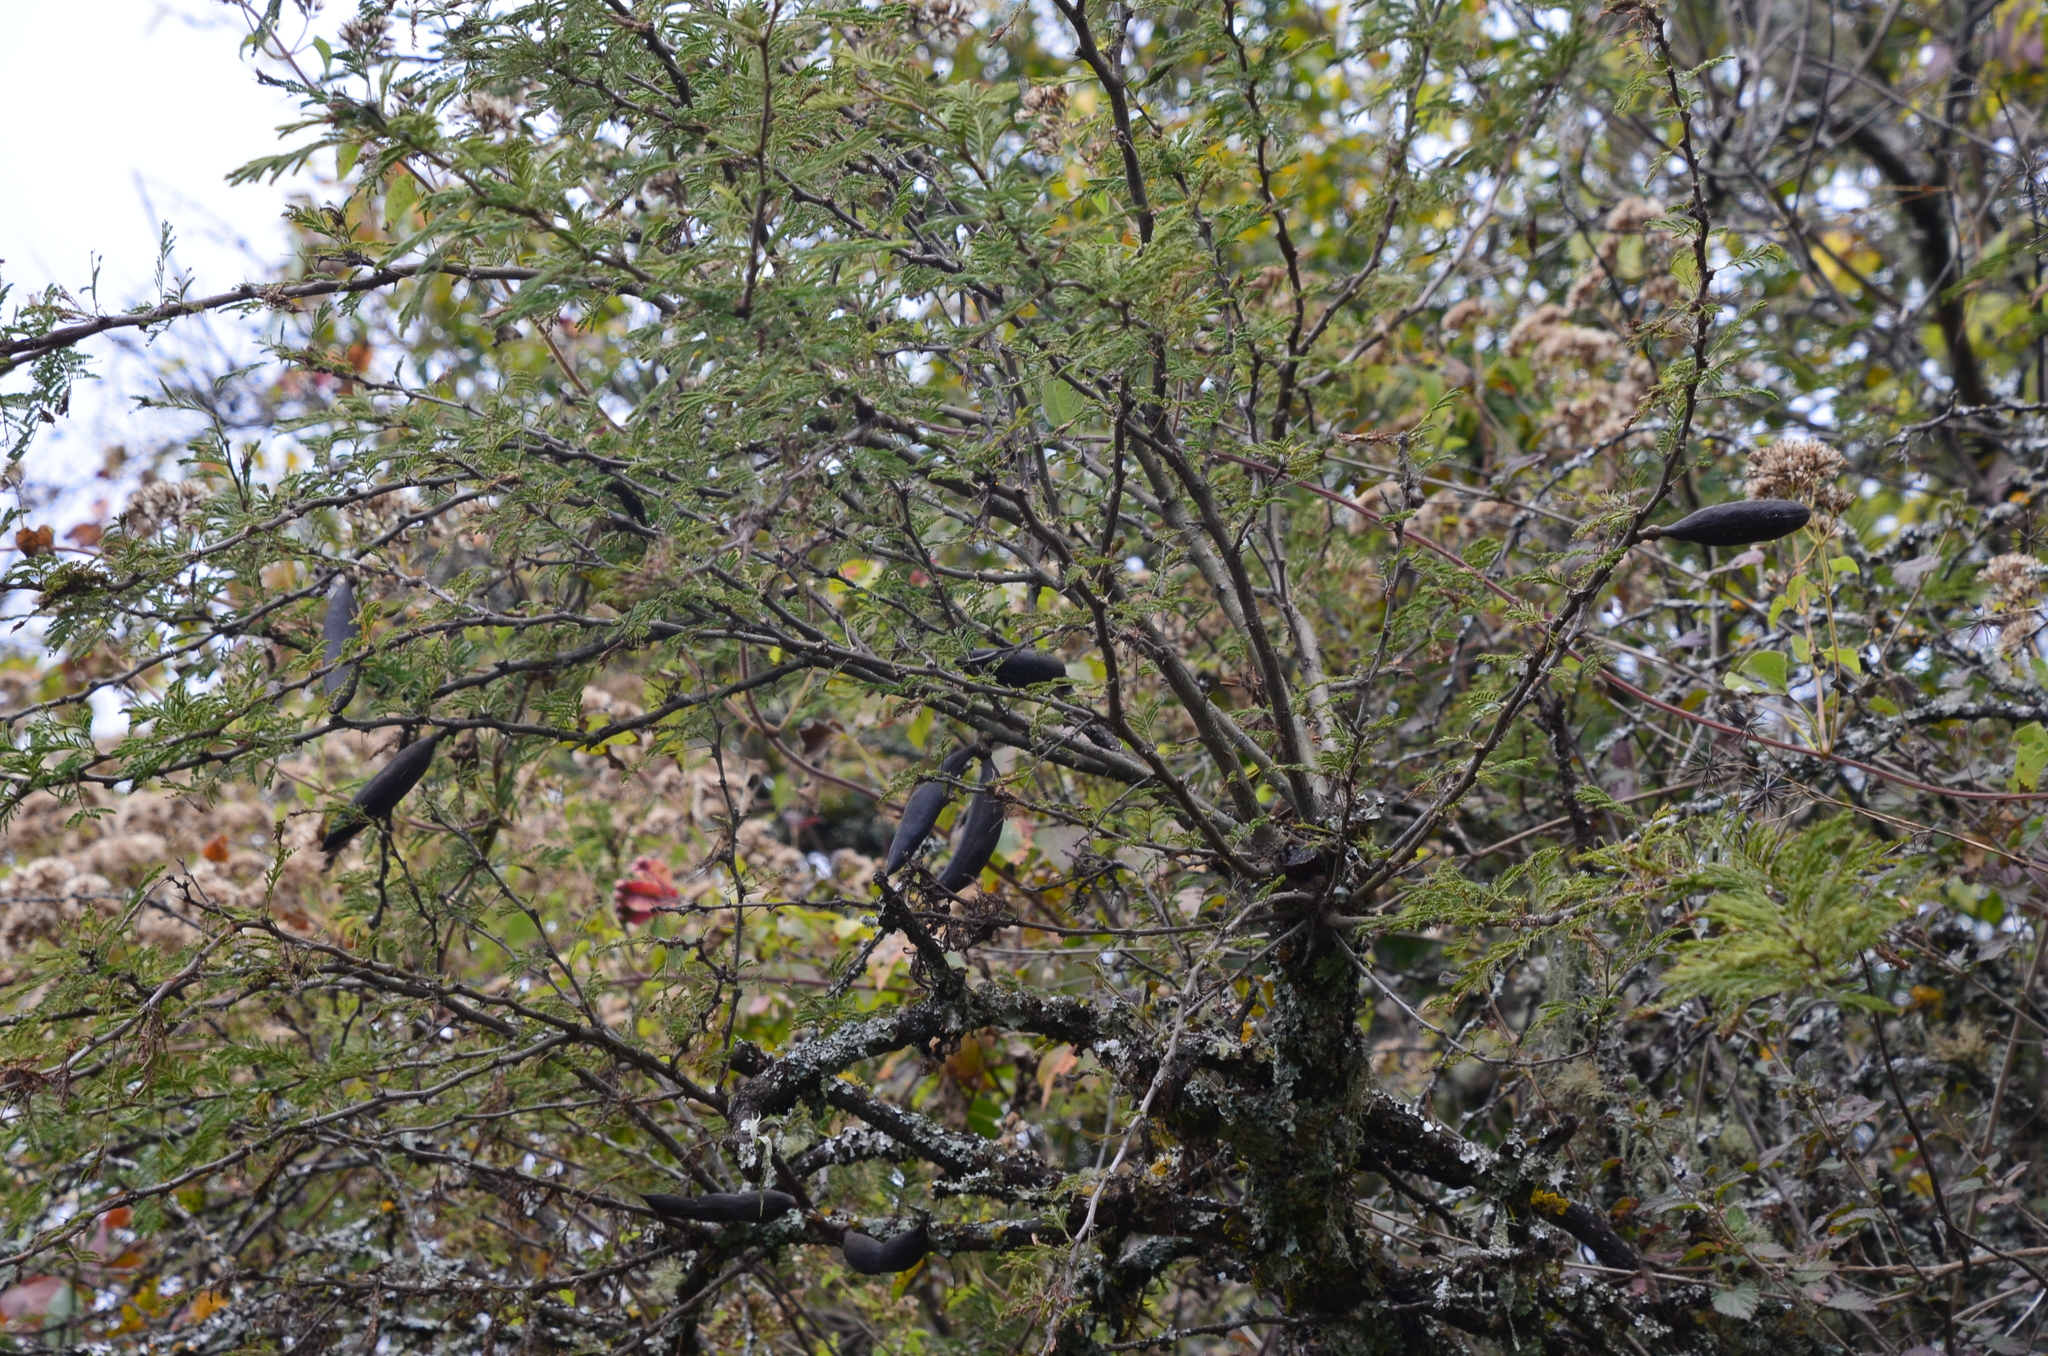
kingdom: Plantae
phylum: Tracheophyta
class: Magnoliopsida
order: Fabales
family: Fabaceae
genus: Vachellia
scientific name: Vachellia caven
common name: Roman cassie
